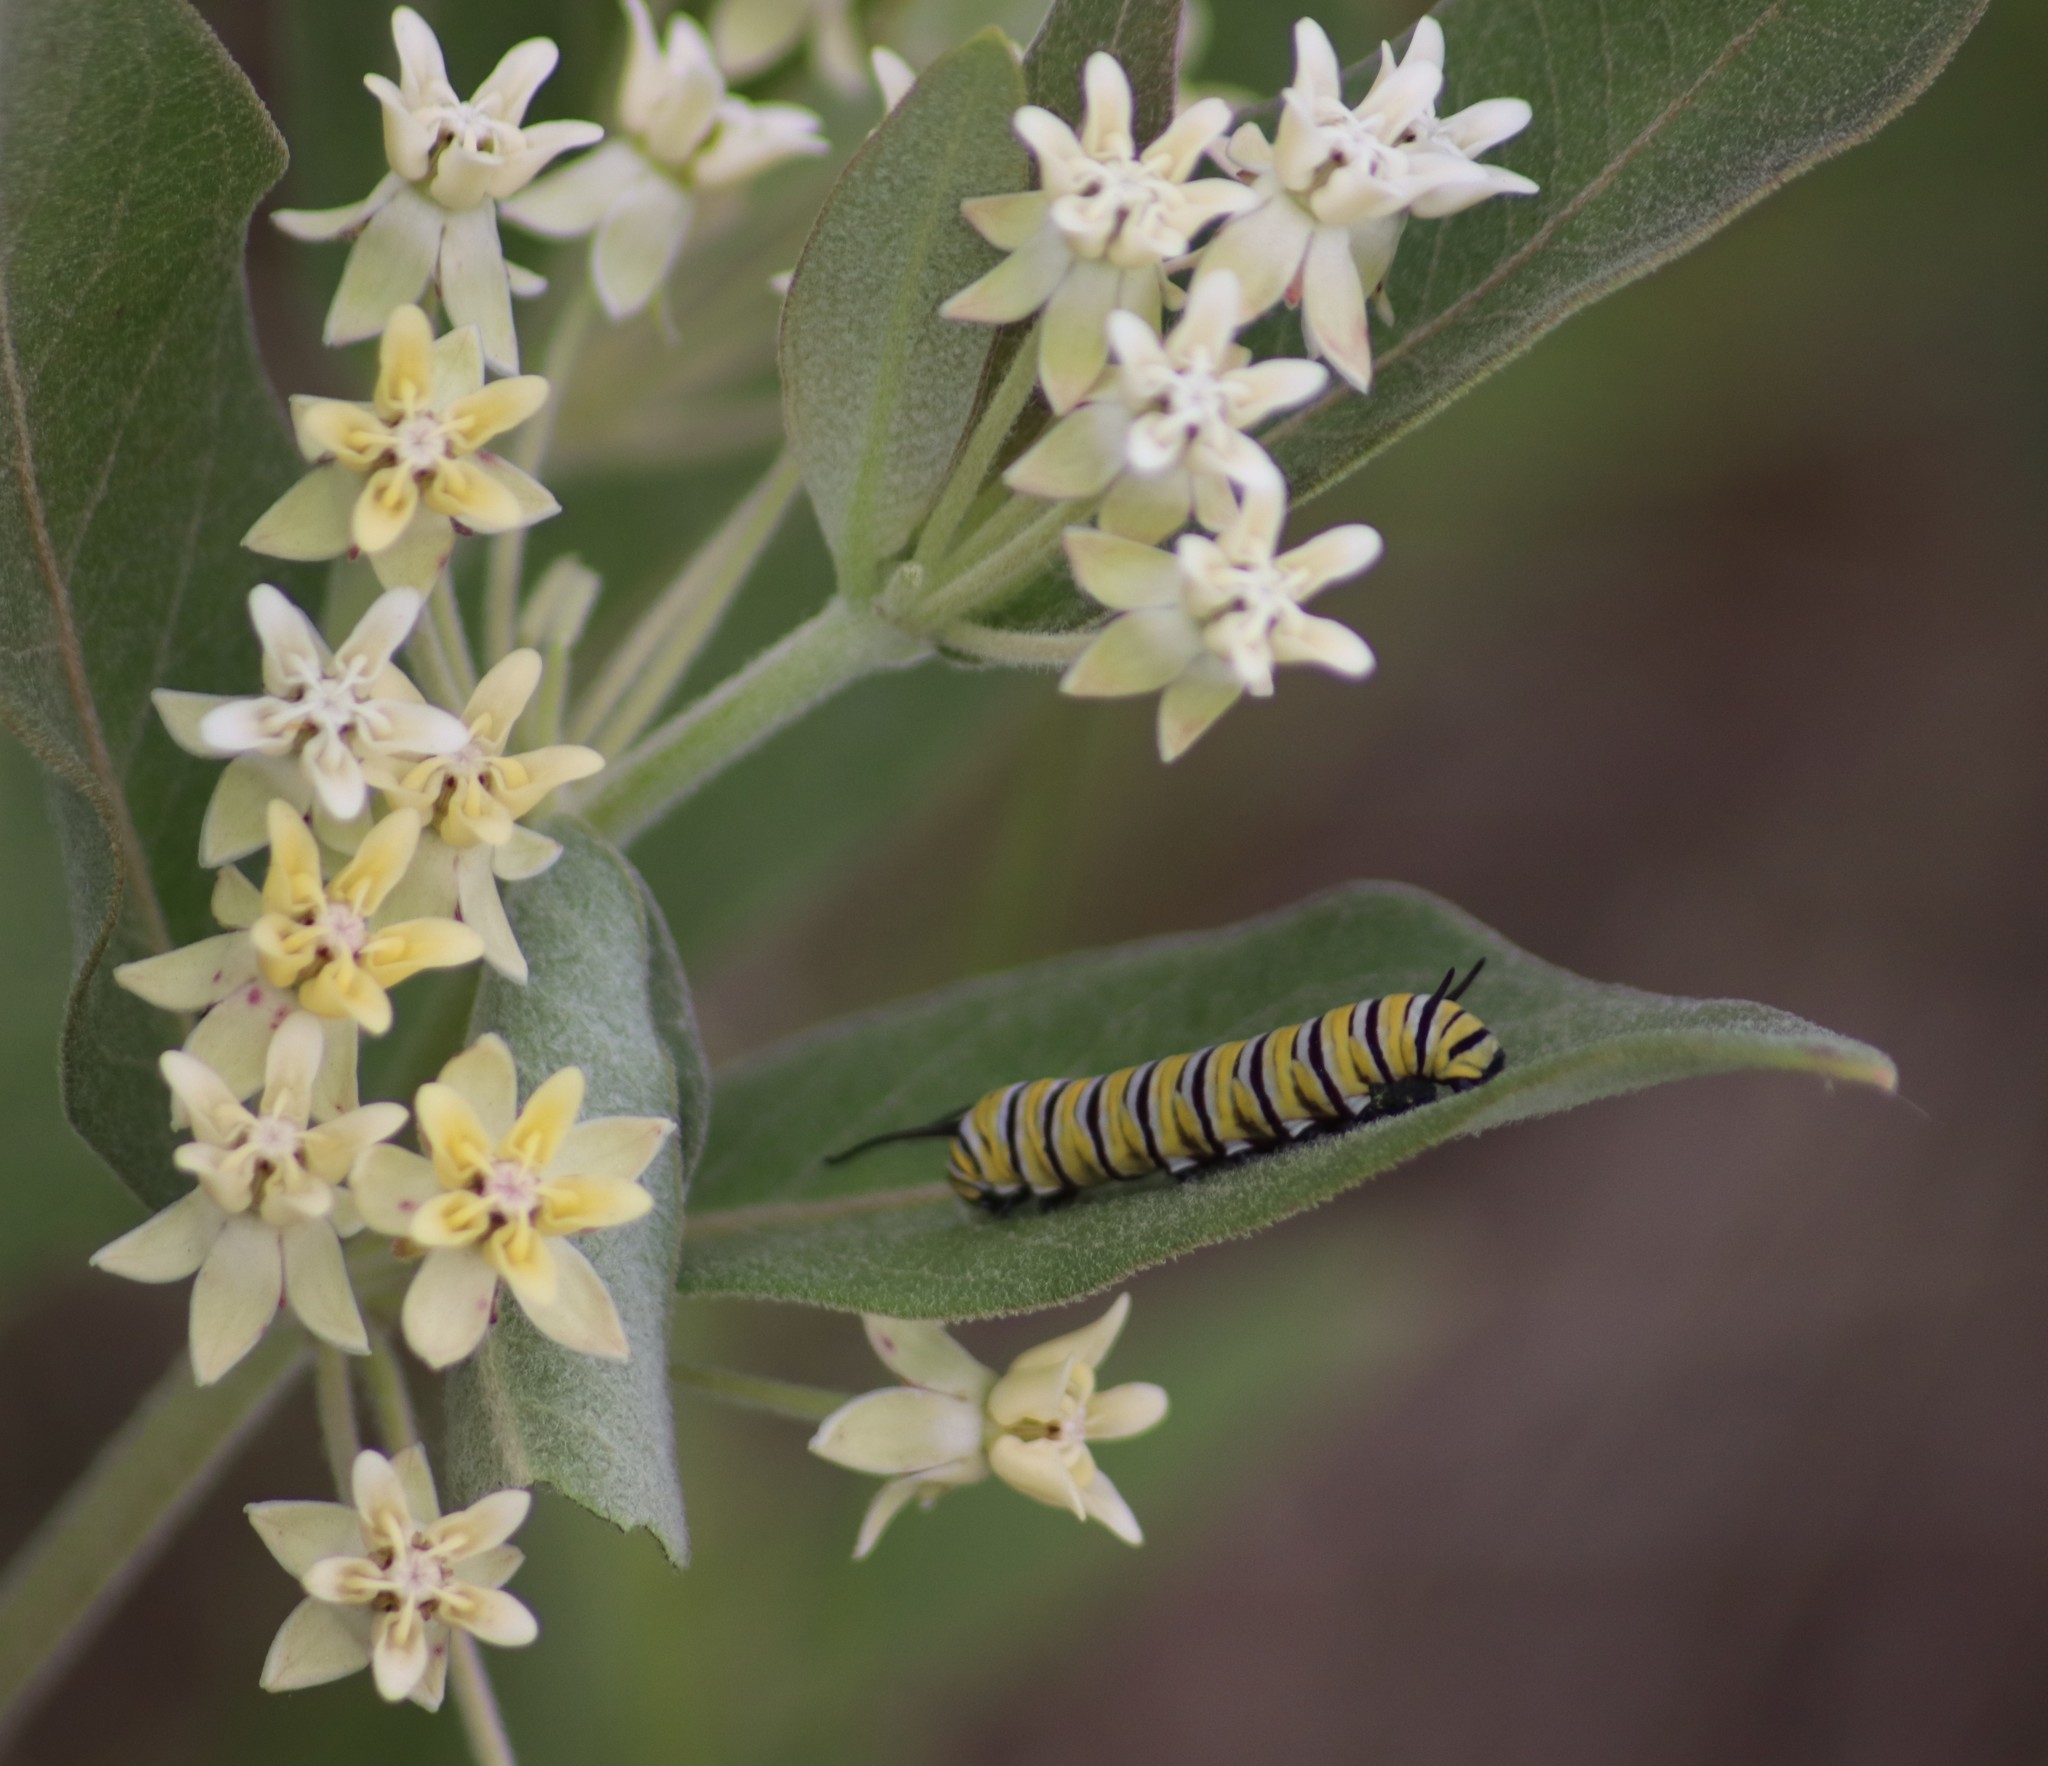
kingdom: Animalia
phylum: Arthropoda
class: Insecta
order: Lepidoptera
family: Nymphalidae
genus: Danaus
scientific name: Danaus plexippus
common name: Monarch
